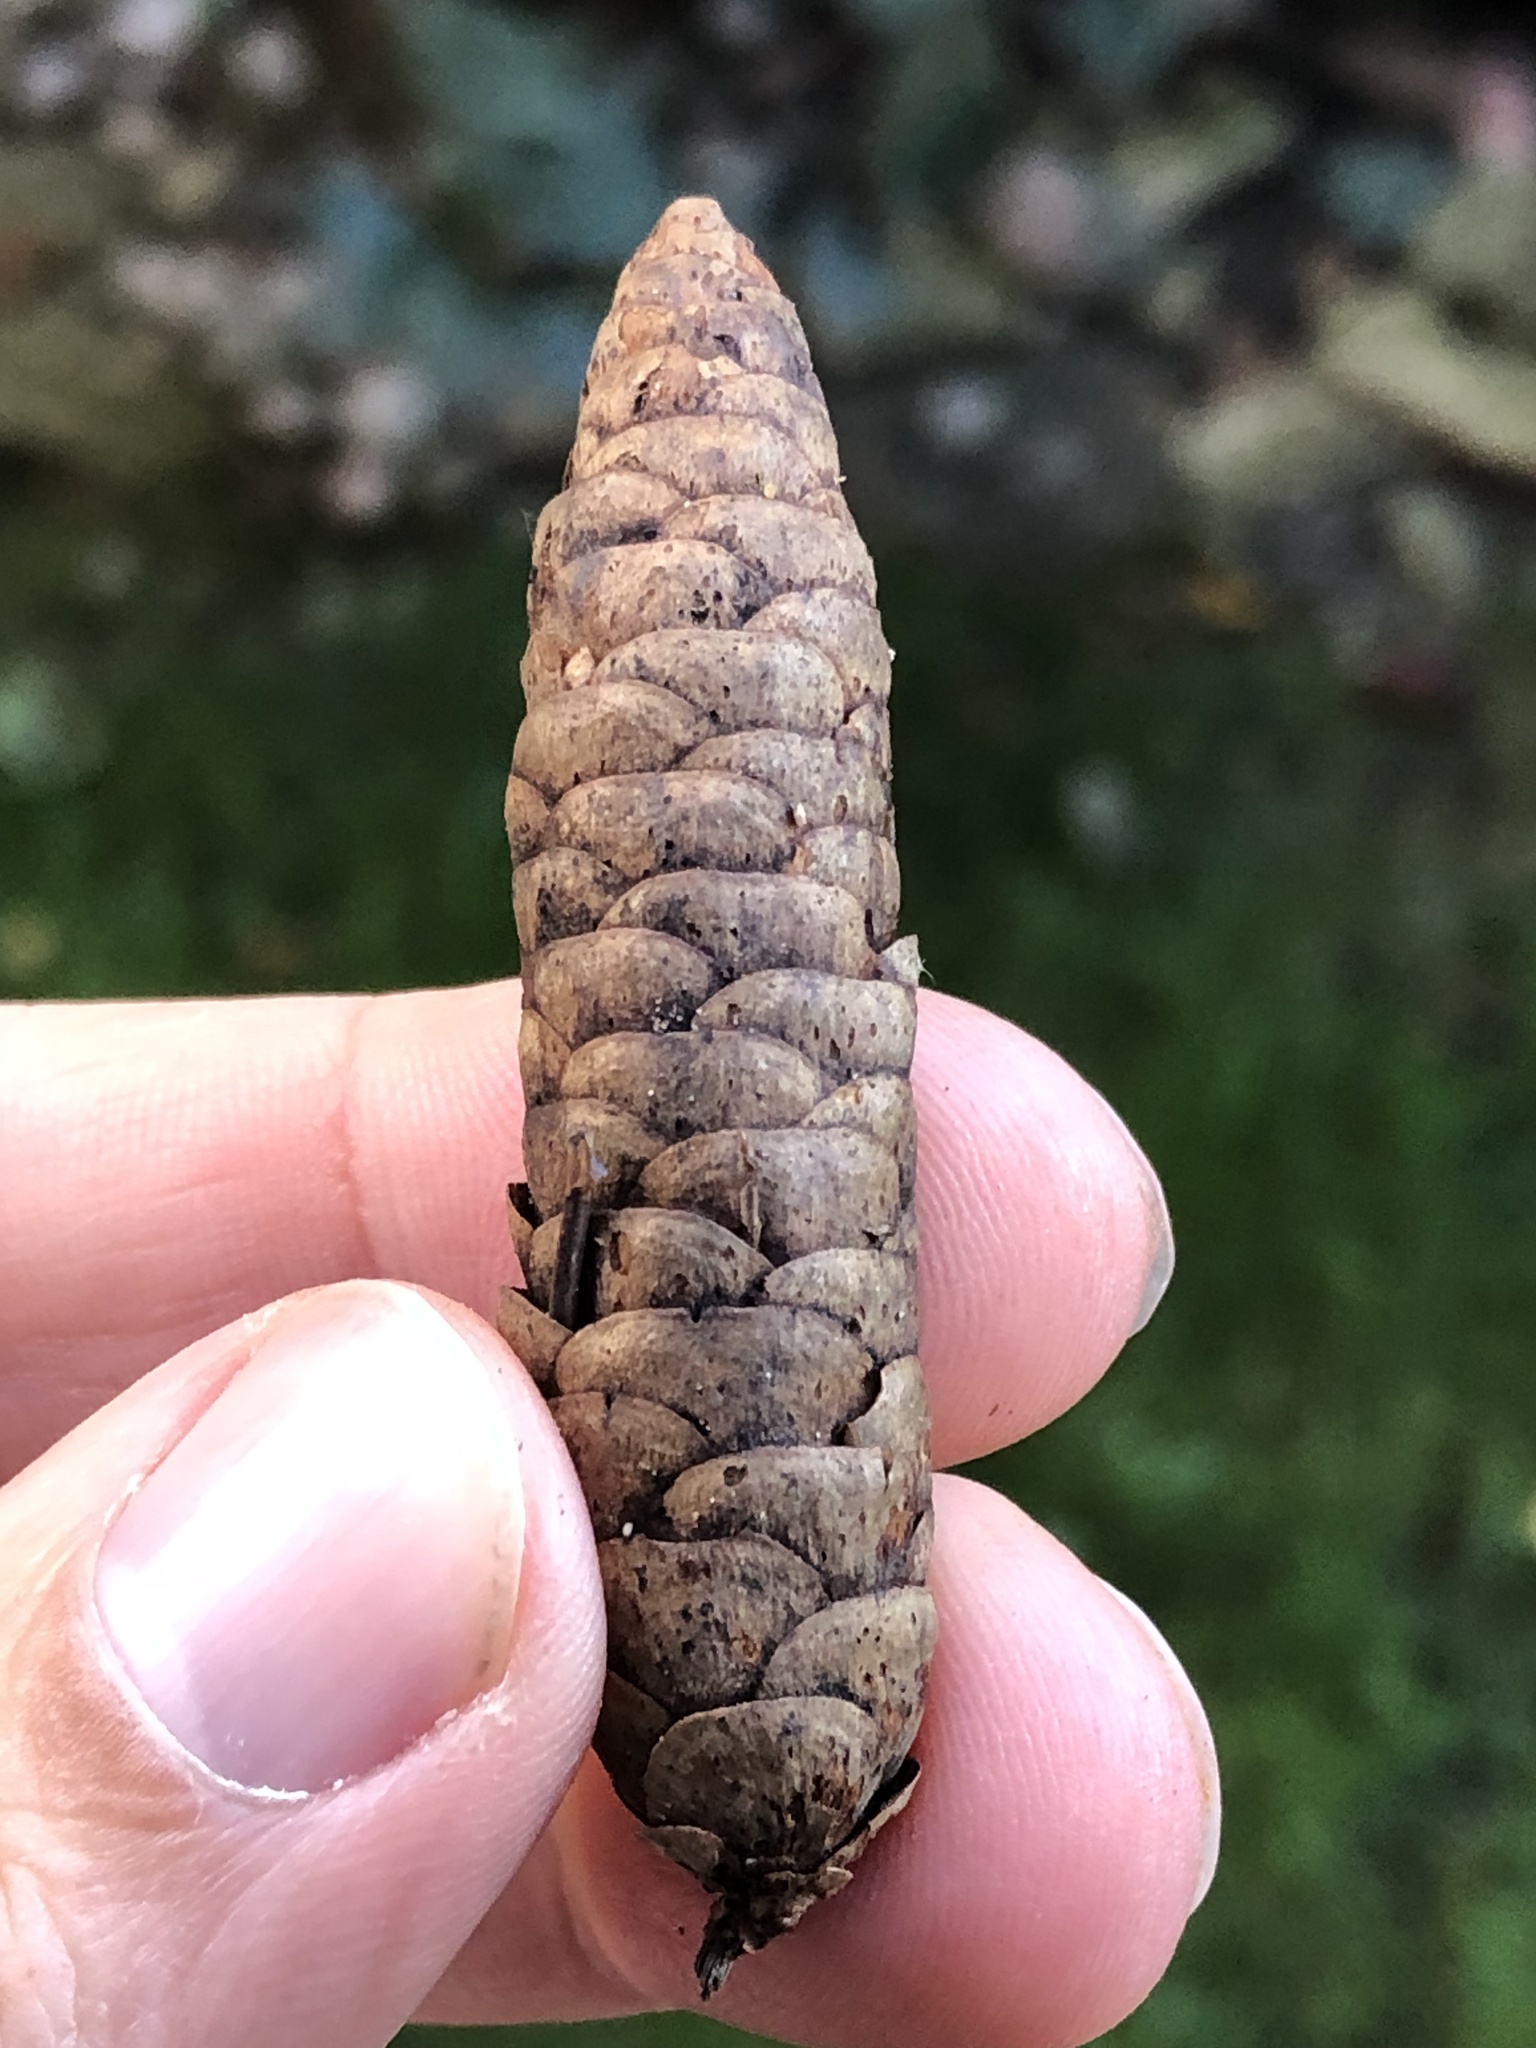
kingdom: Plantae
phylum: Tracheophyta
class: Pinopsida
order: Pinales
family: Pinaceae
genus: Picea
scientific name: Picea glauca
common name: White spruce
